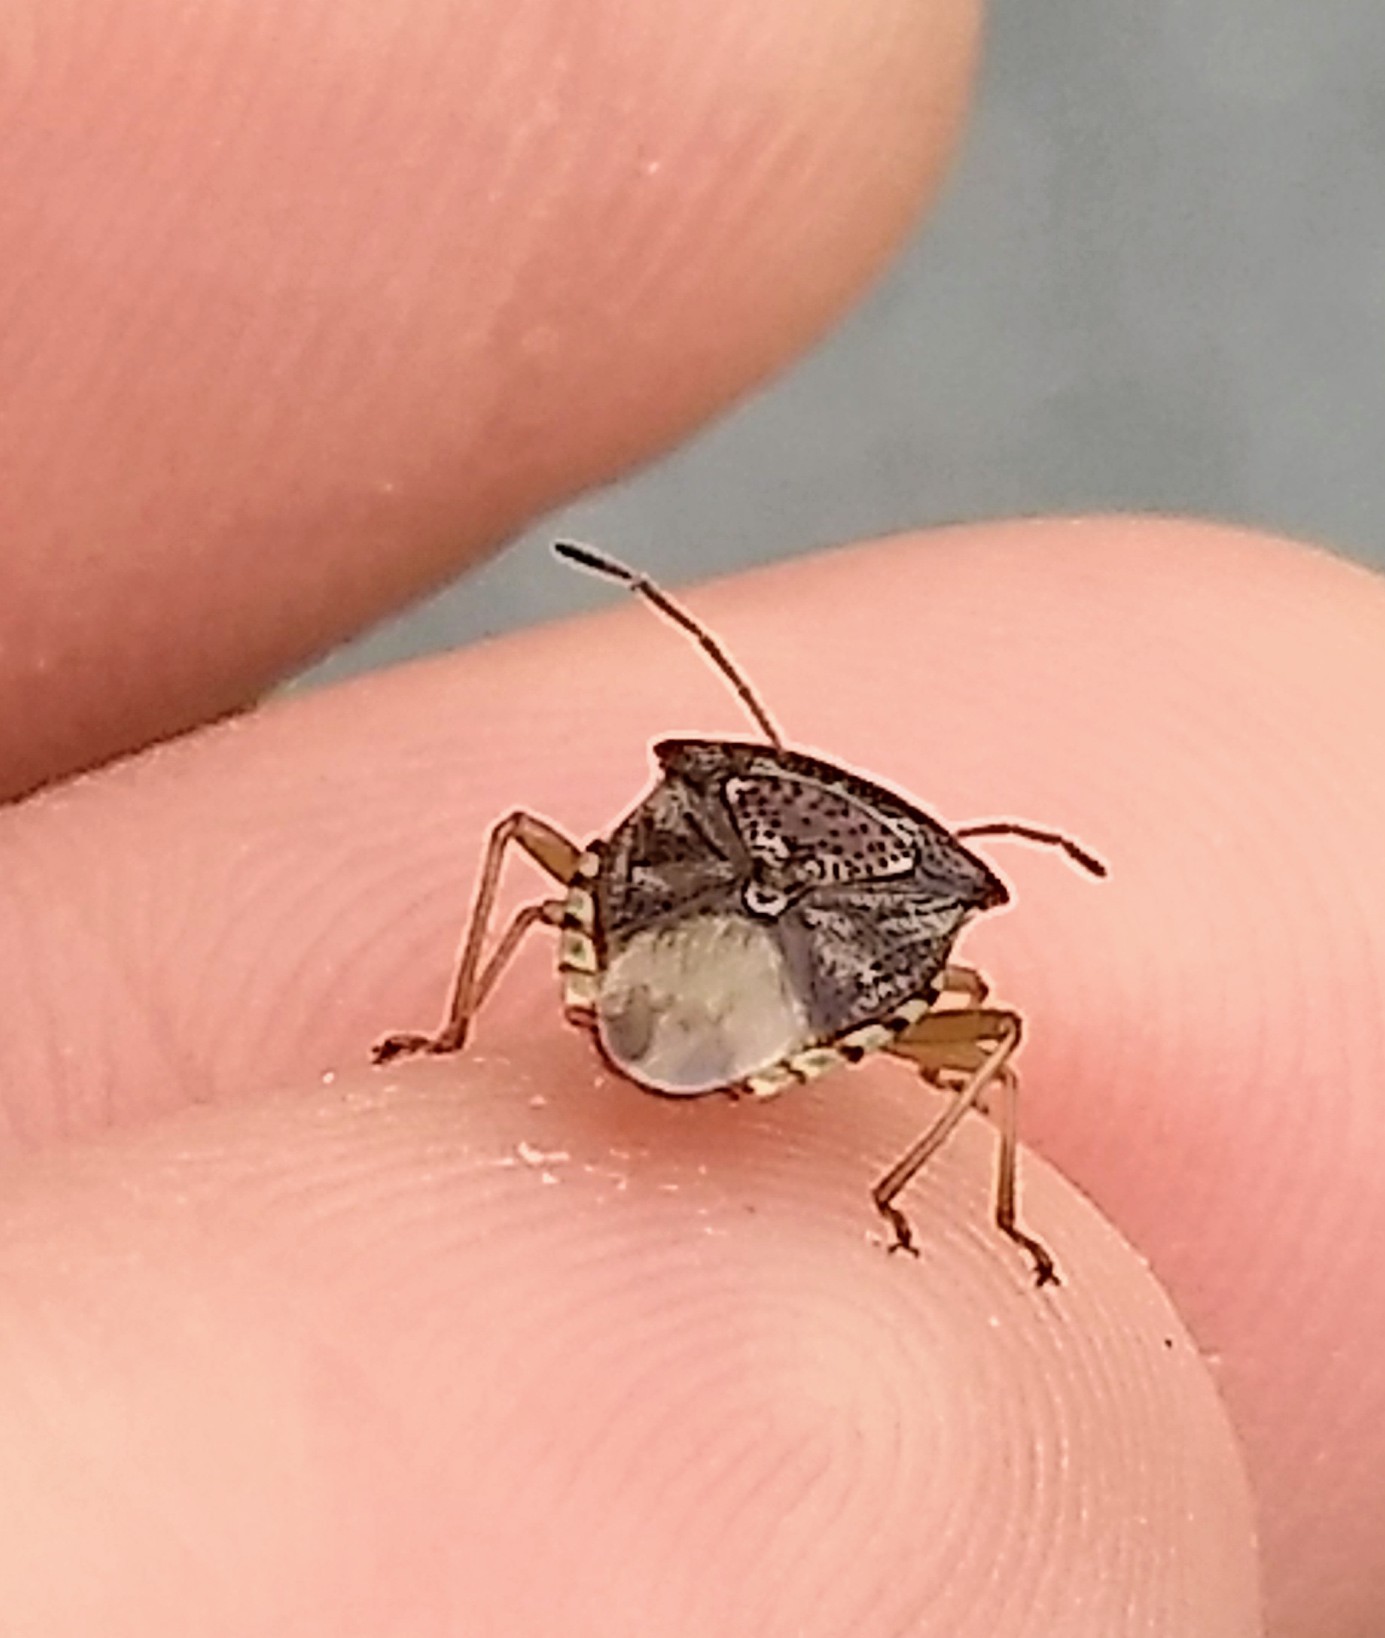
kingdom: Animalia
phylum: Arthropoda
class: Insecta
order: Hemiptera
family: Acanthosomatidae
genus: Elasmucha
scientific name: Elasmucha lateralis
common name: Shield bug
